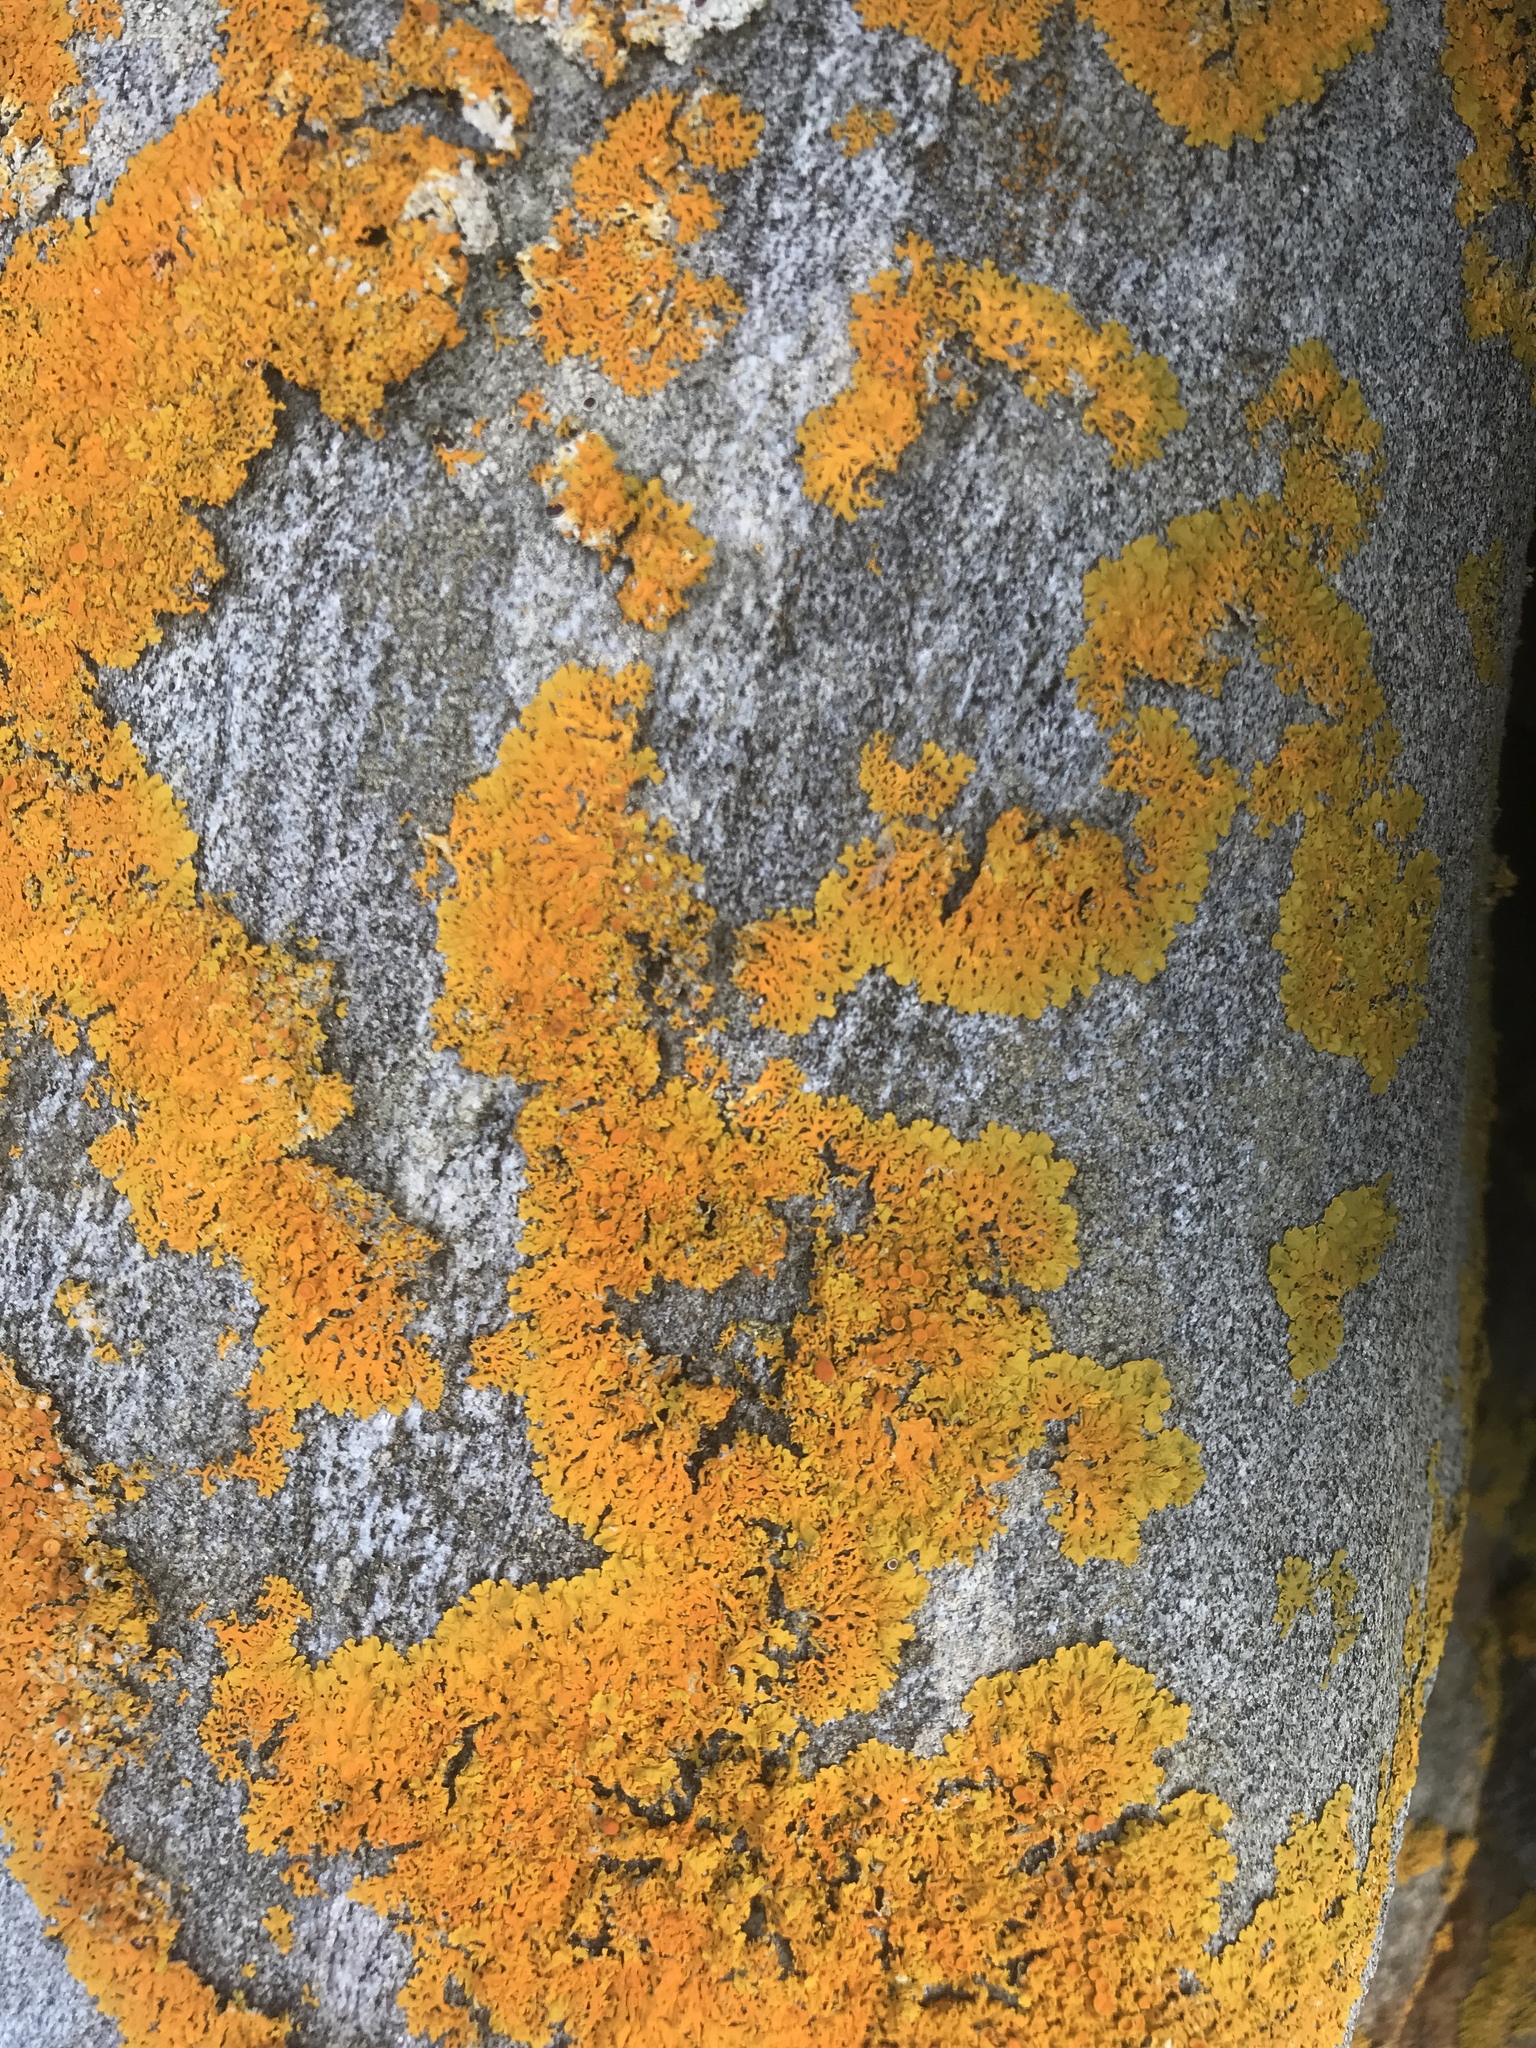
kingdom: Fungi
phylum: Ascomycota
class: Lecanoromycetes
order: Teloschistales
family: Teloschistaceae
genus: Xanthoria
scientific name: Xanthoria parietina
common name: Common orange lichen
